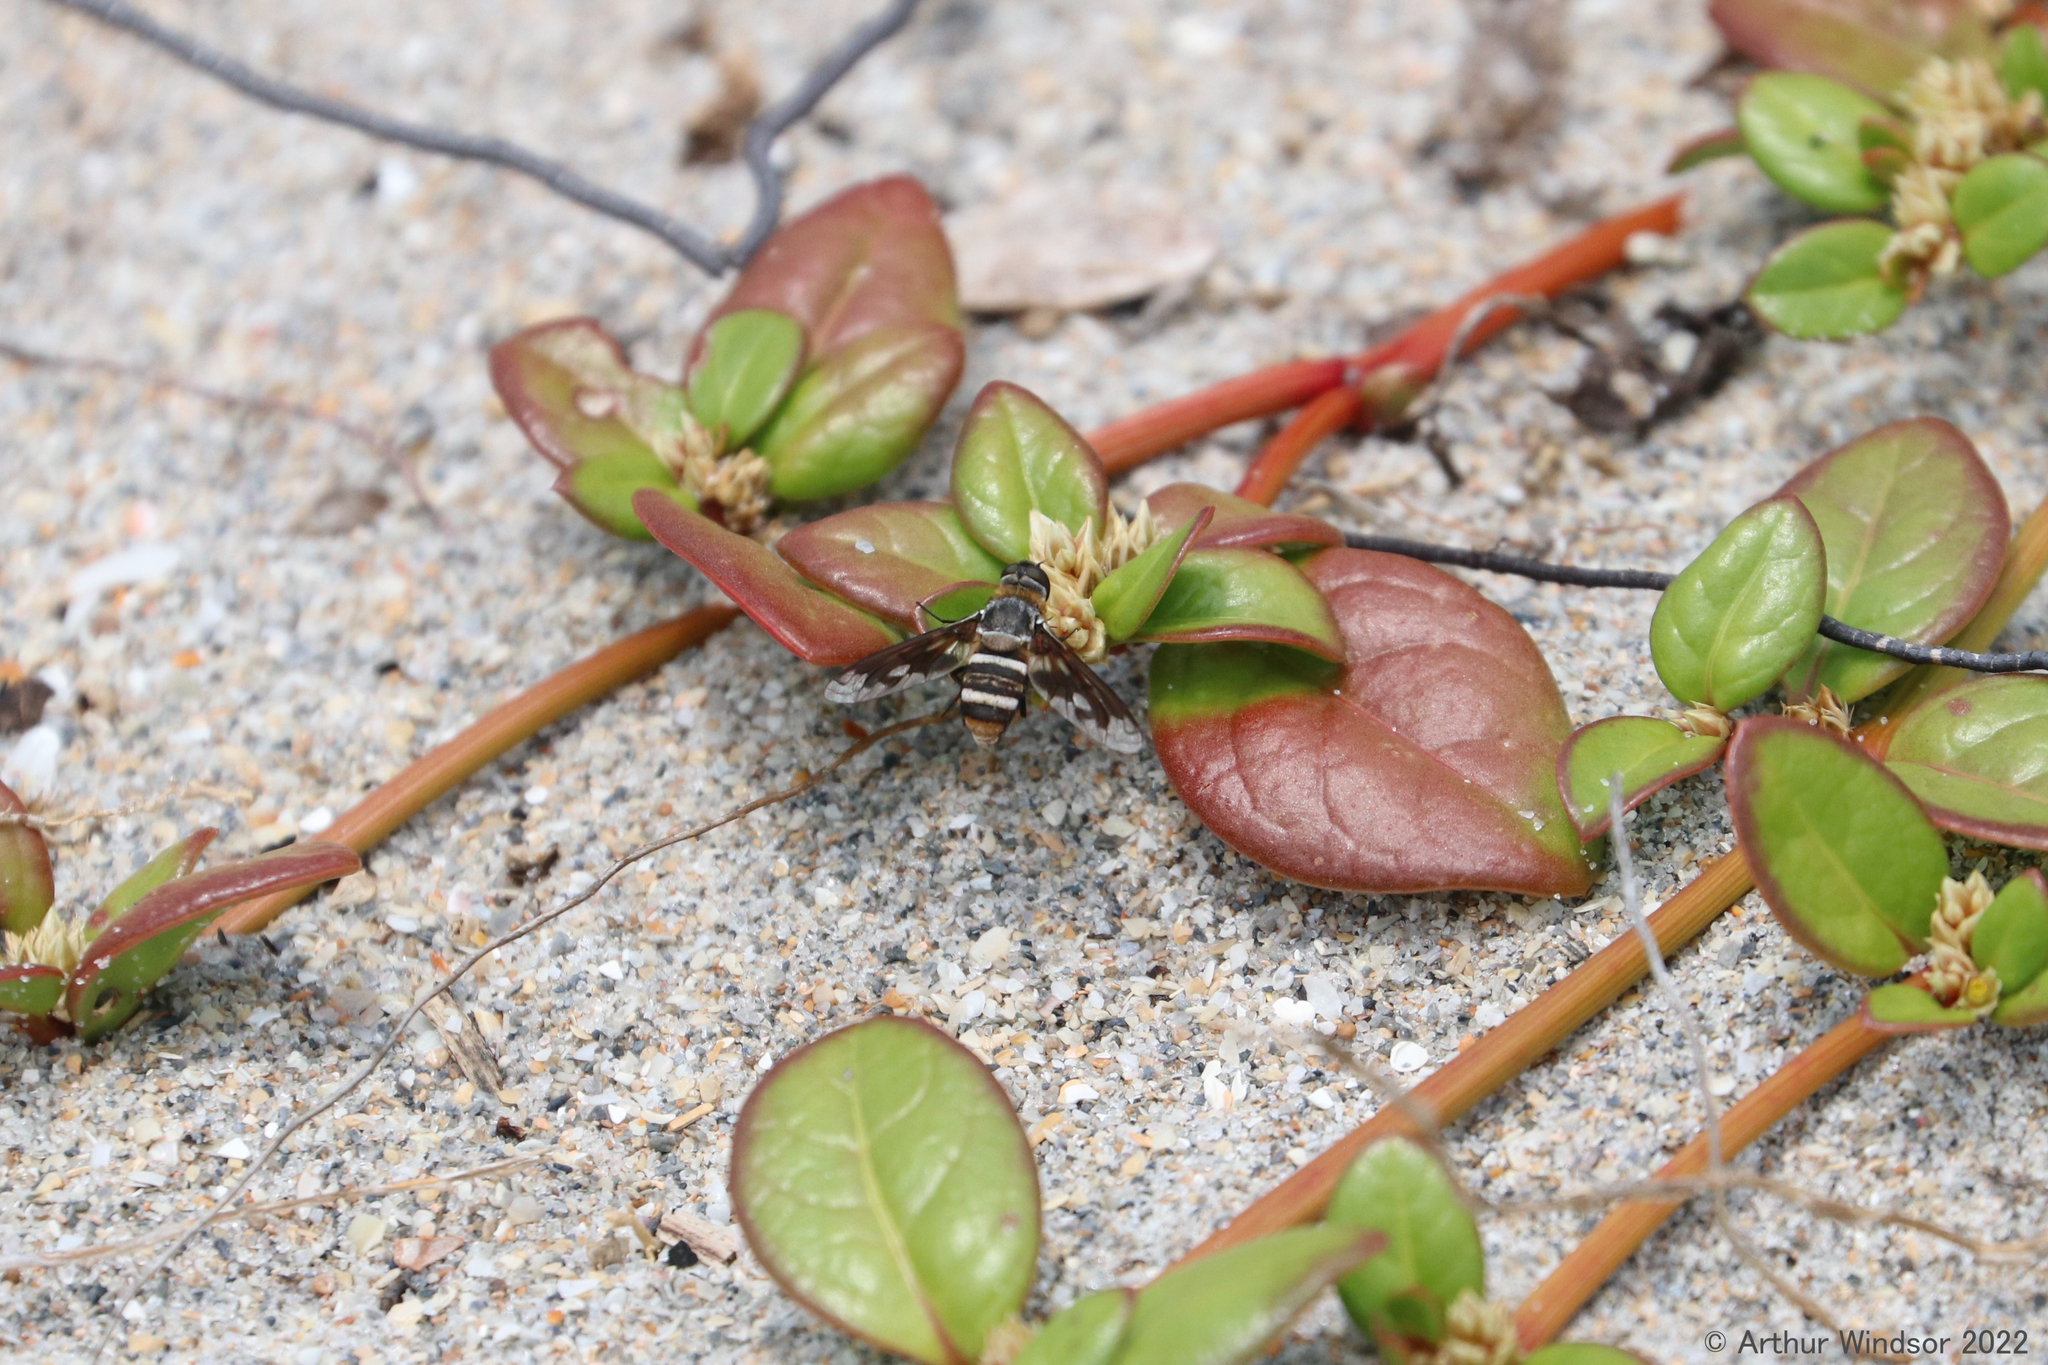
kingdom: Animalia
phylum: Arthropoda
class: Insecta
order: Diptera
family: Bombyliidae
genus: Exoprosopa
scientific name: Exoprosopa fascipennis
